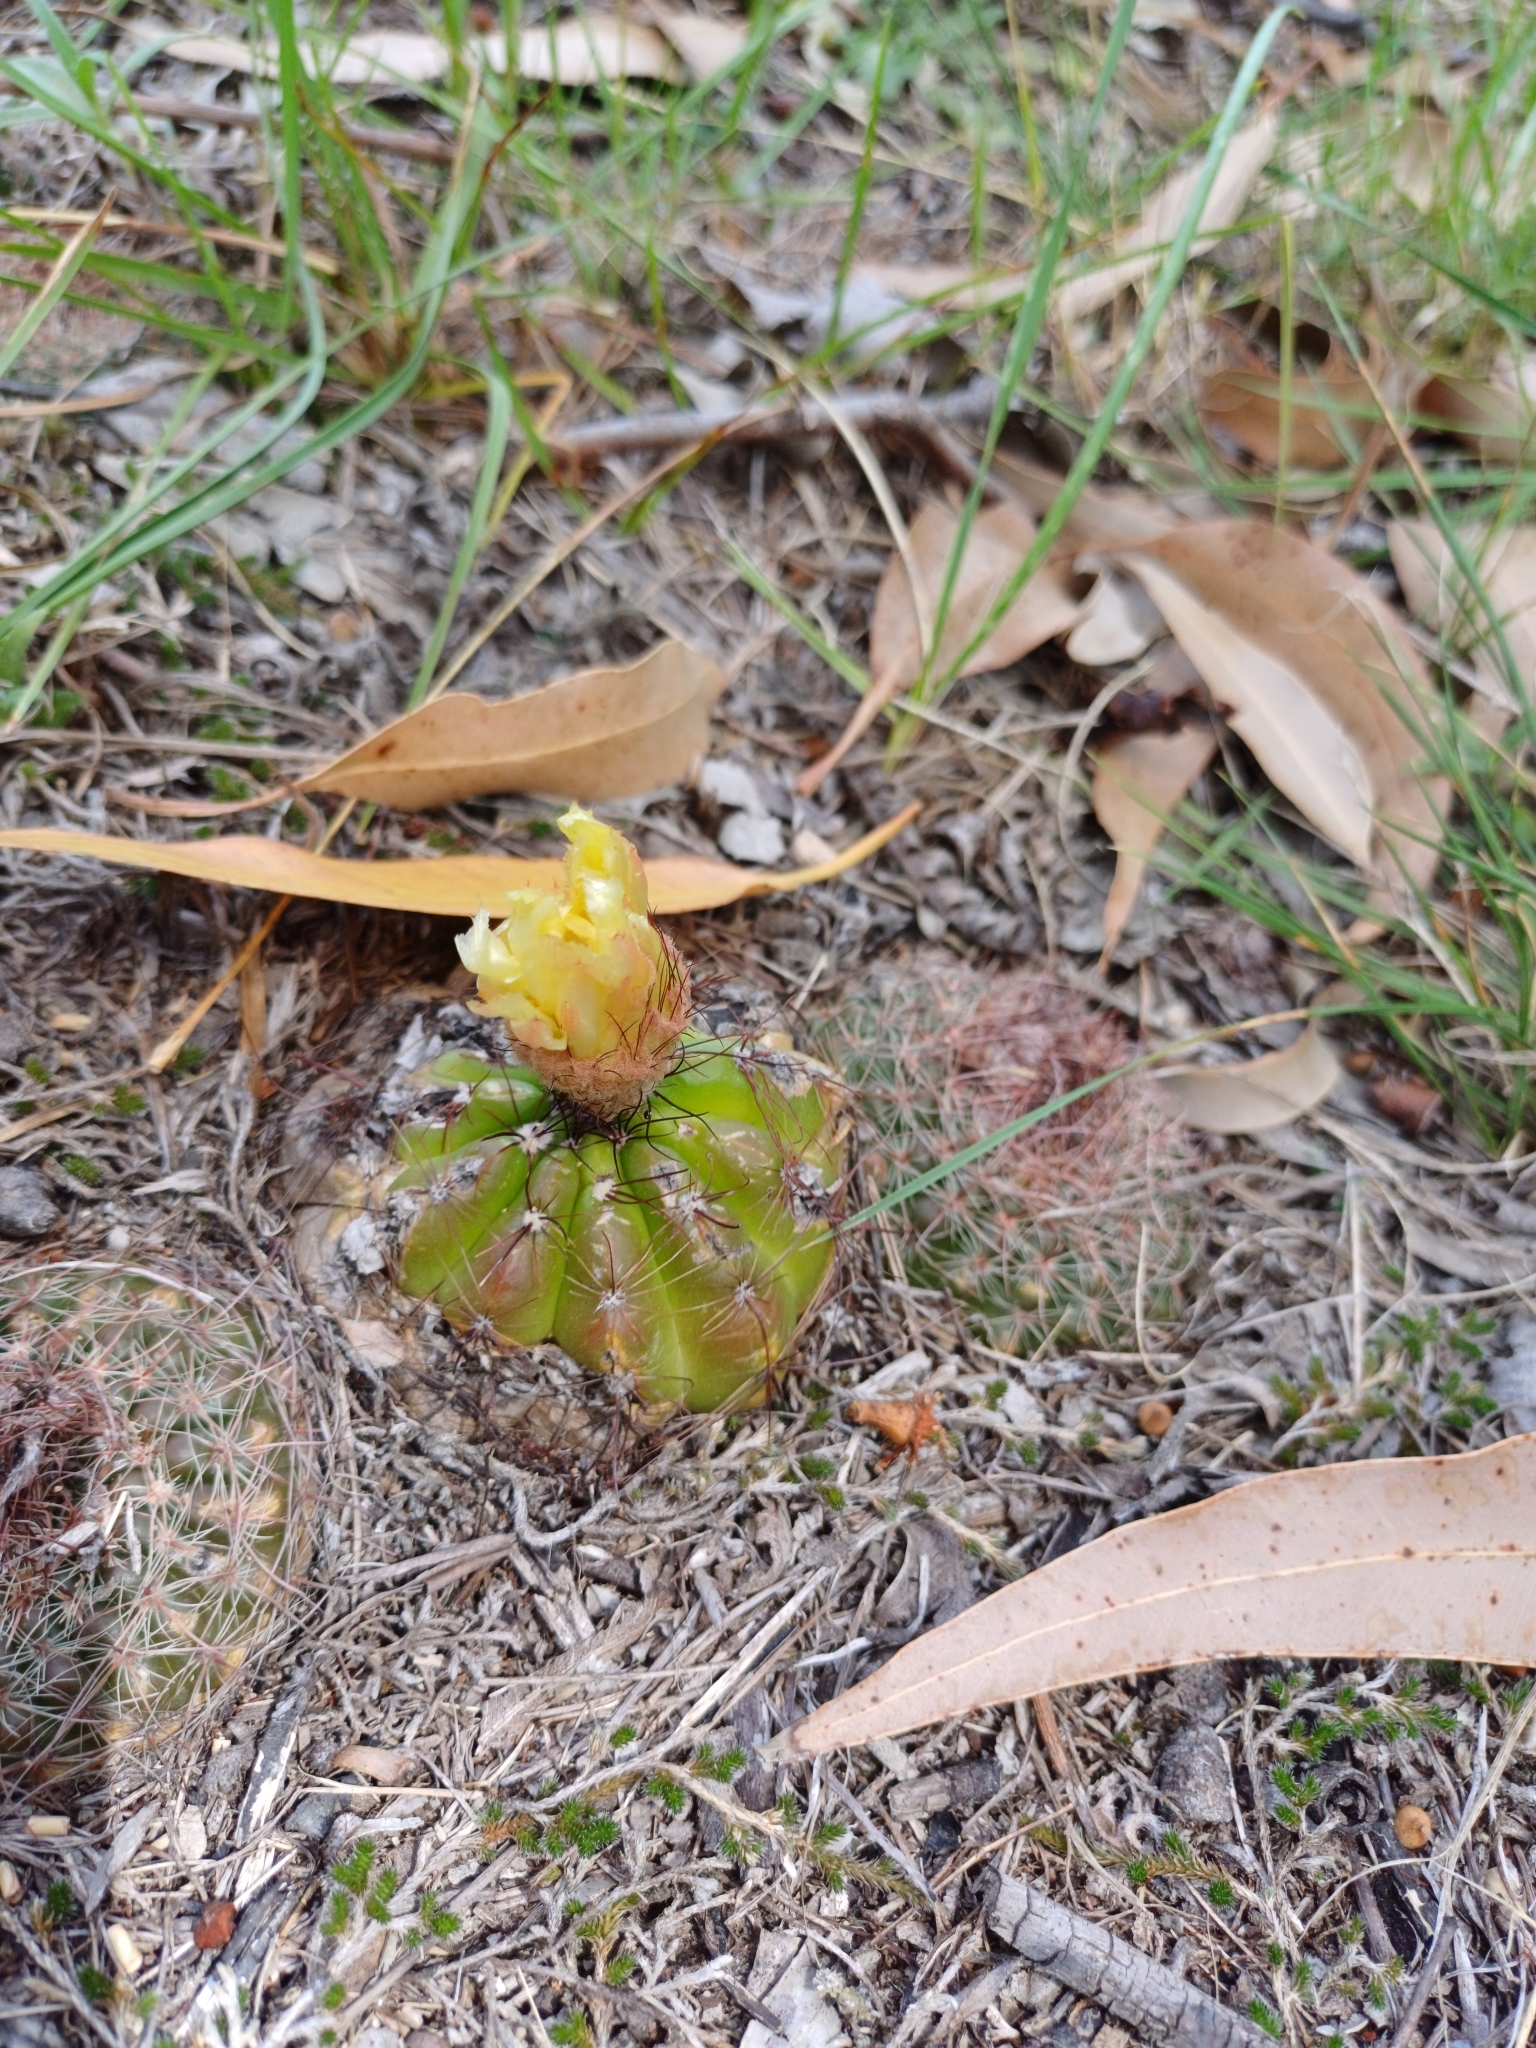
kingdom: Plantae
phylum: Tracheophyta
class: Magnoliopsida
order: Caryophyllales
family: Cactaceae
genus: Parodia
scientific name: Parodia ottonis
